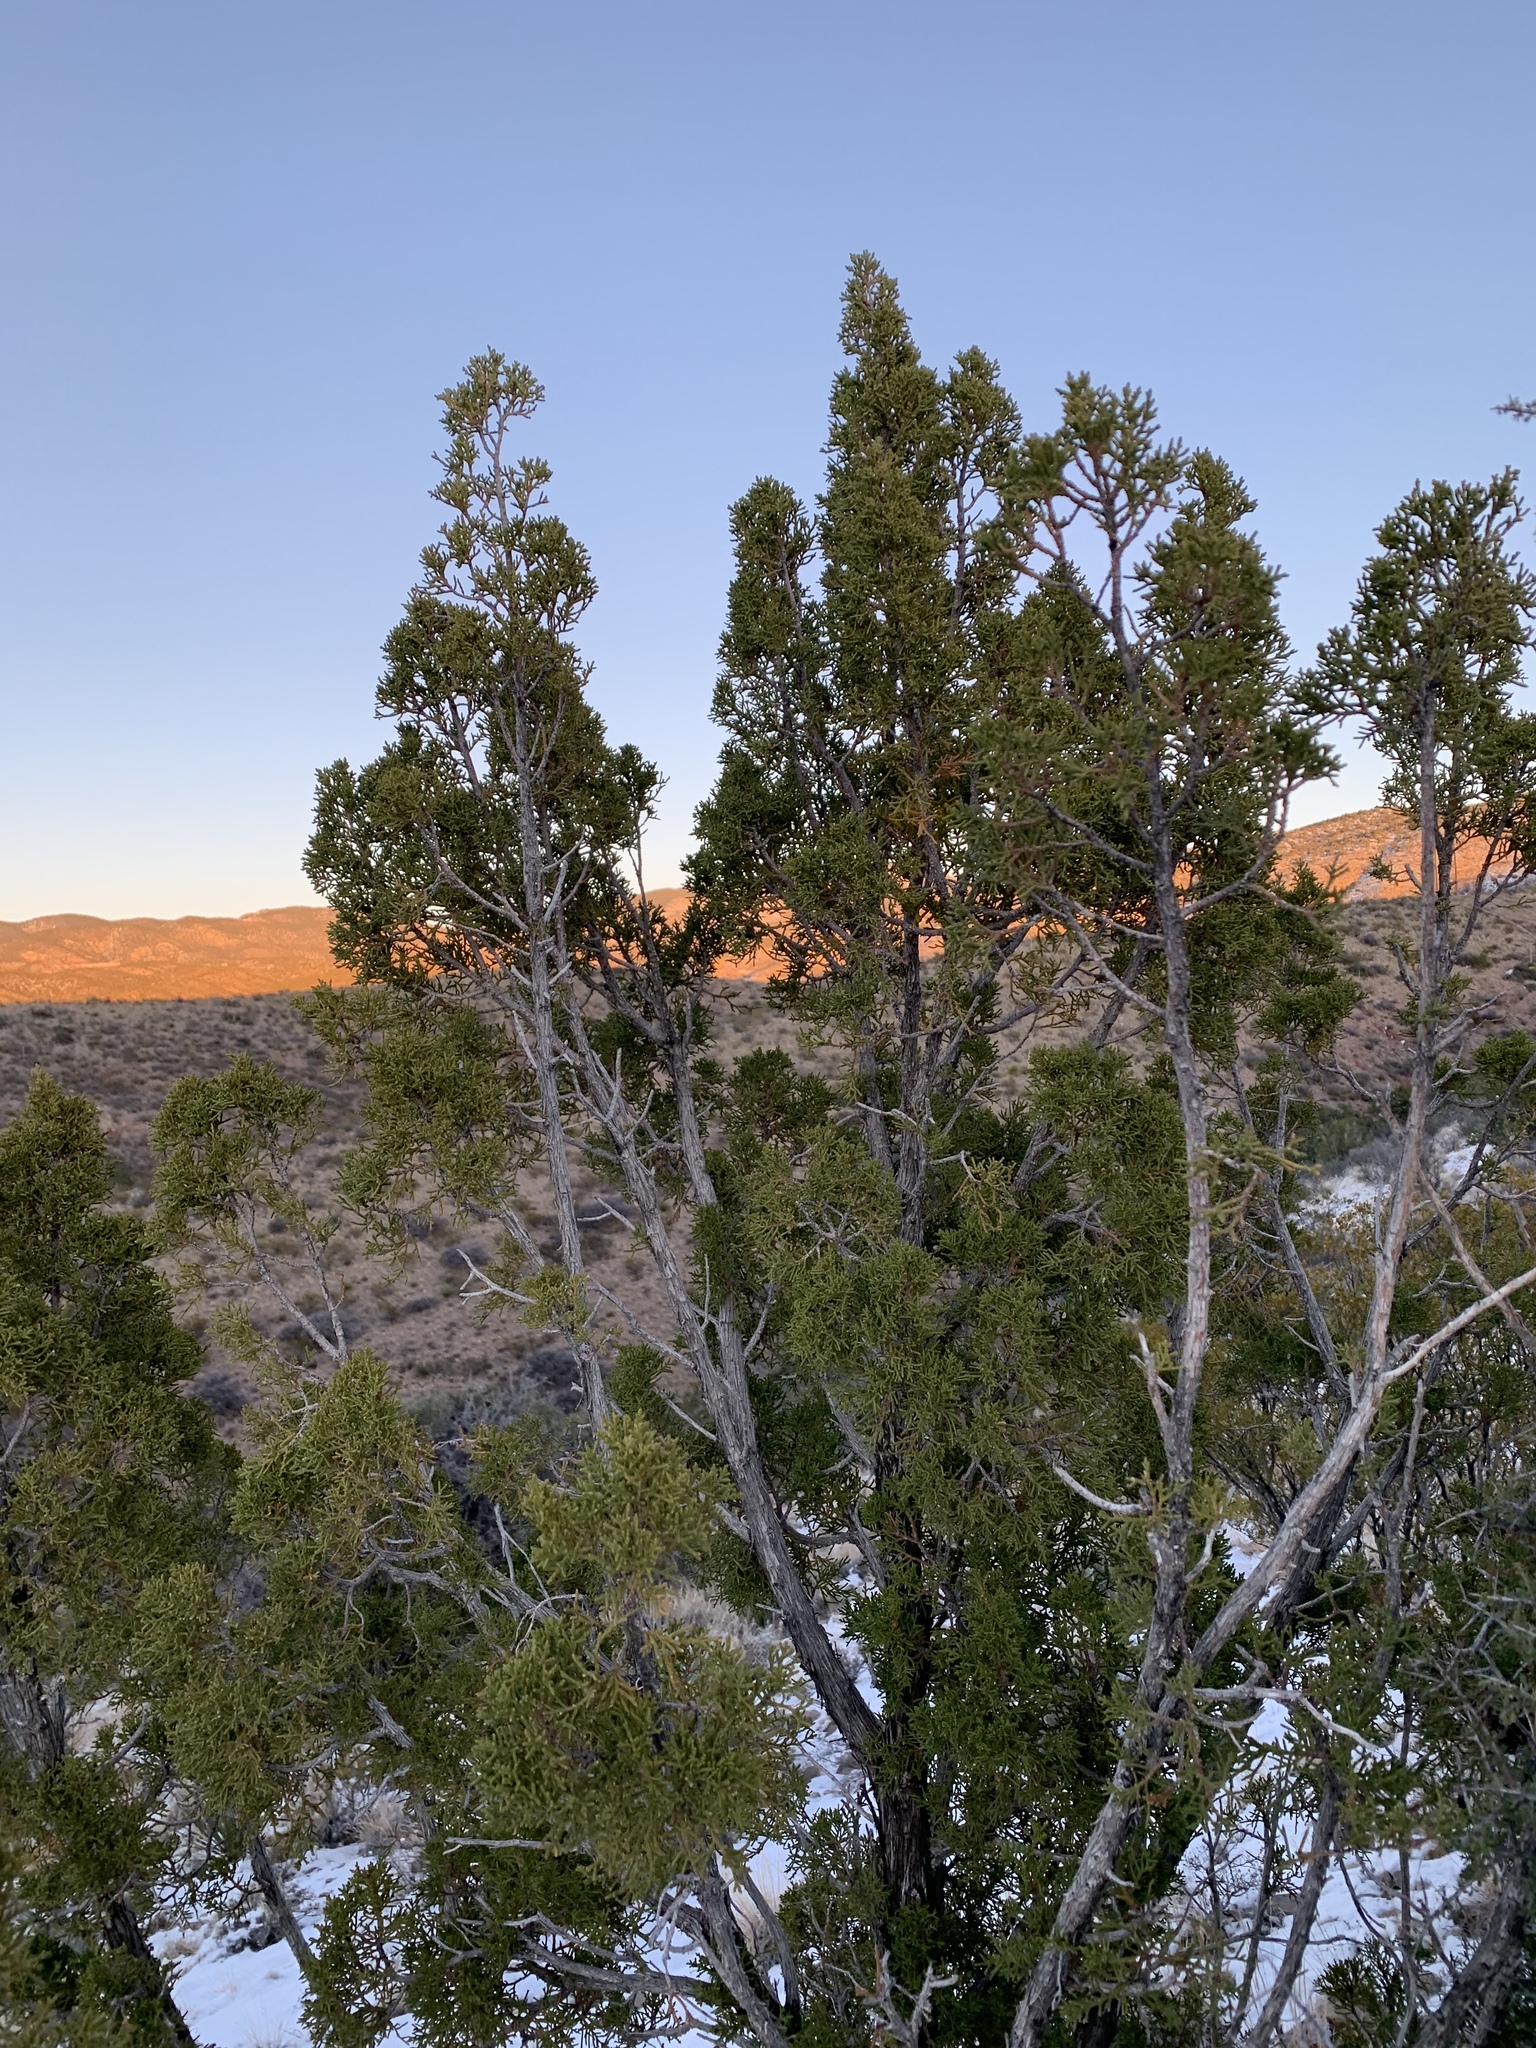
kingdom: Plantae
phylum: Tracheophyta
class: Pinopsida
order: Pinales
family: Cupressaceae
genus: Juniperus
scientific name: Juniperus monosperma
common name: One-seed juniper
